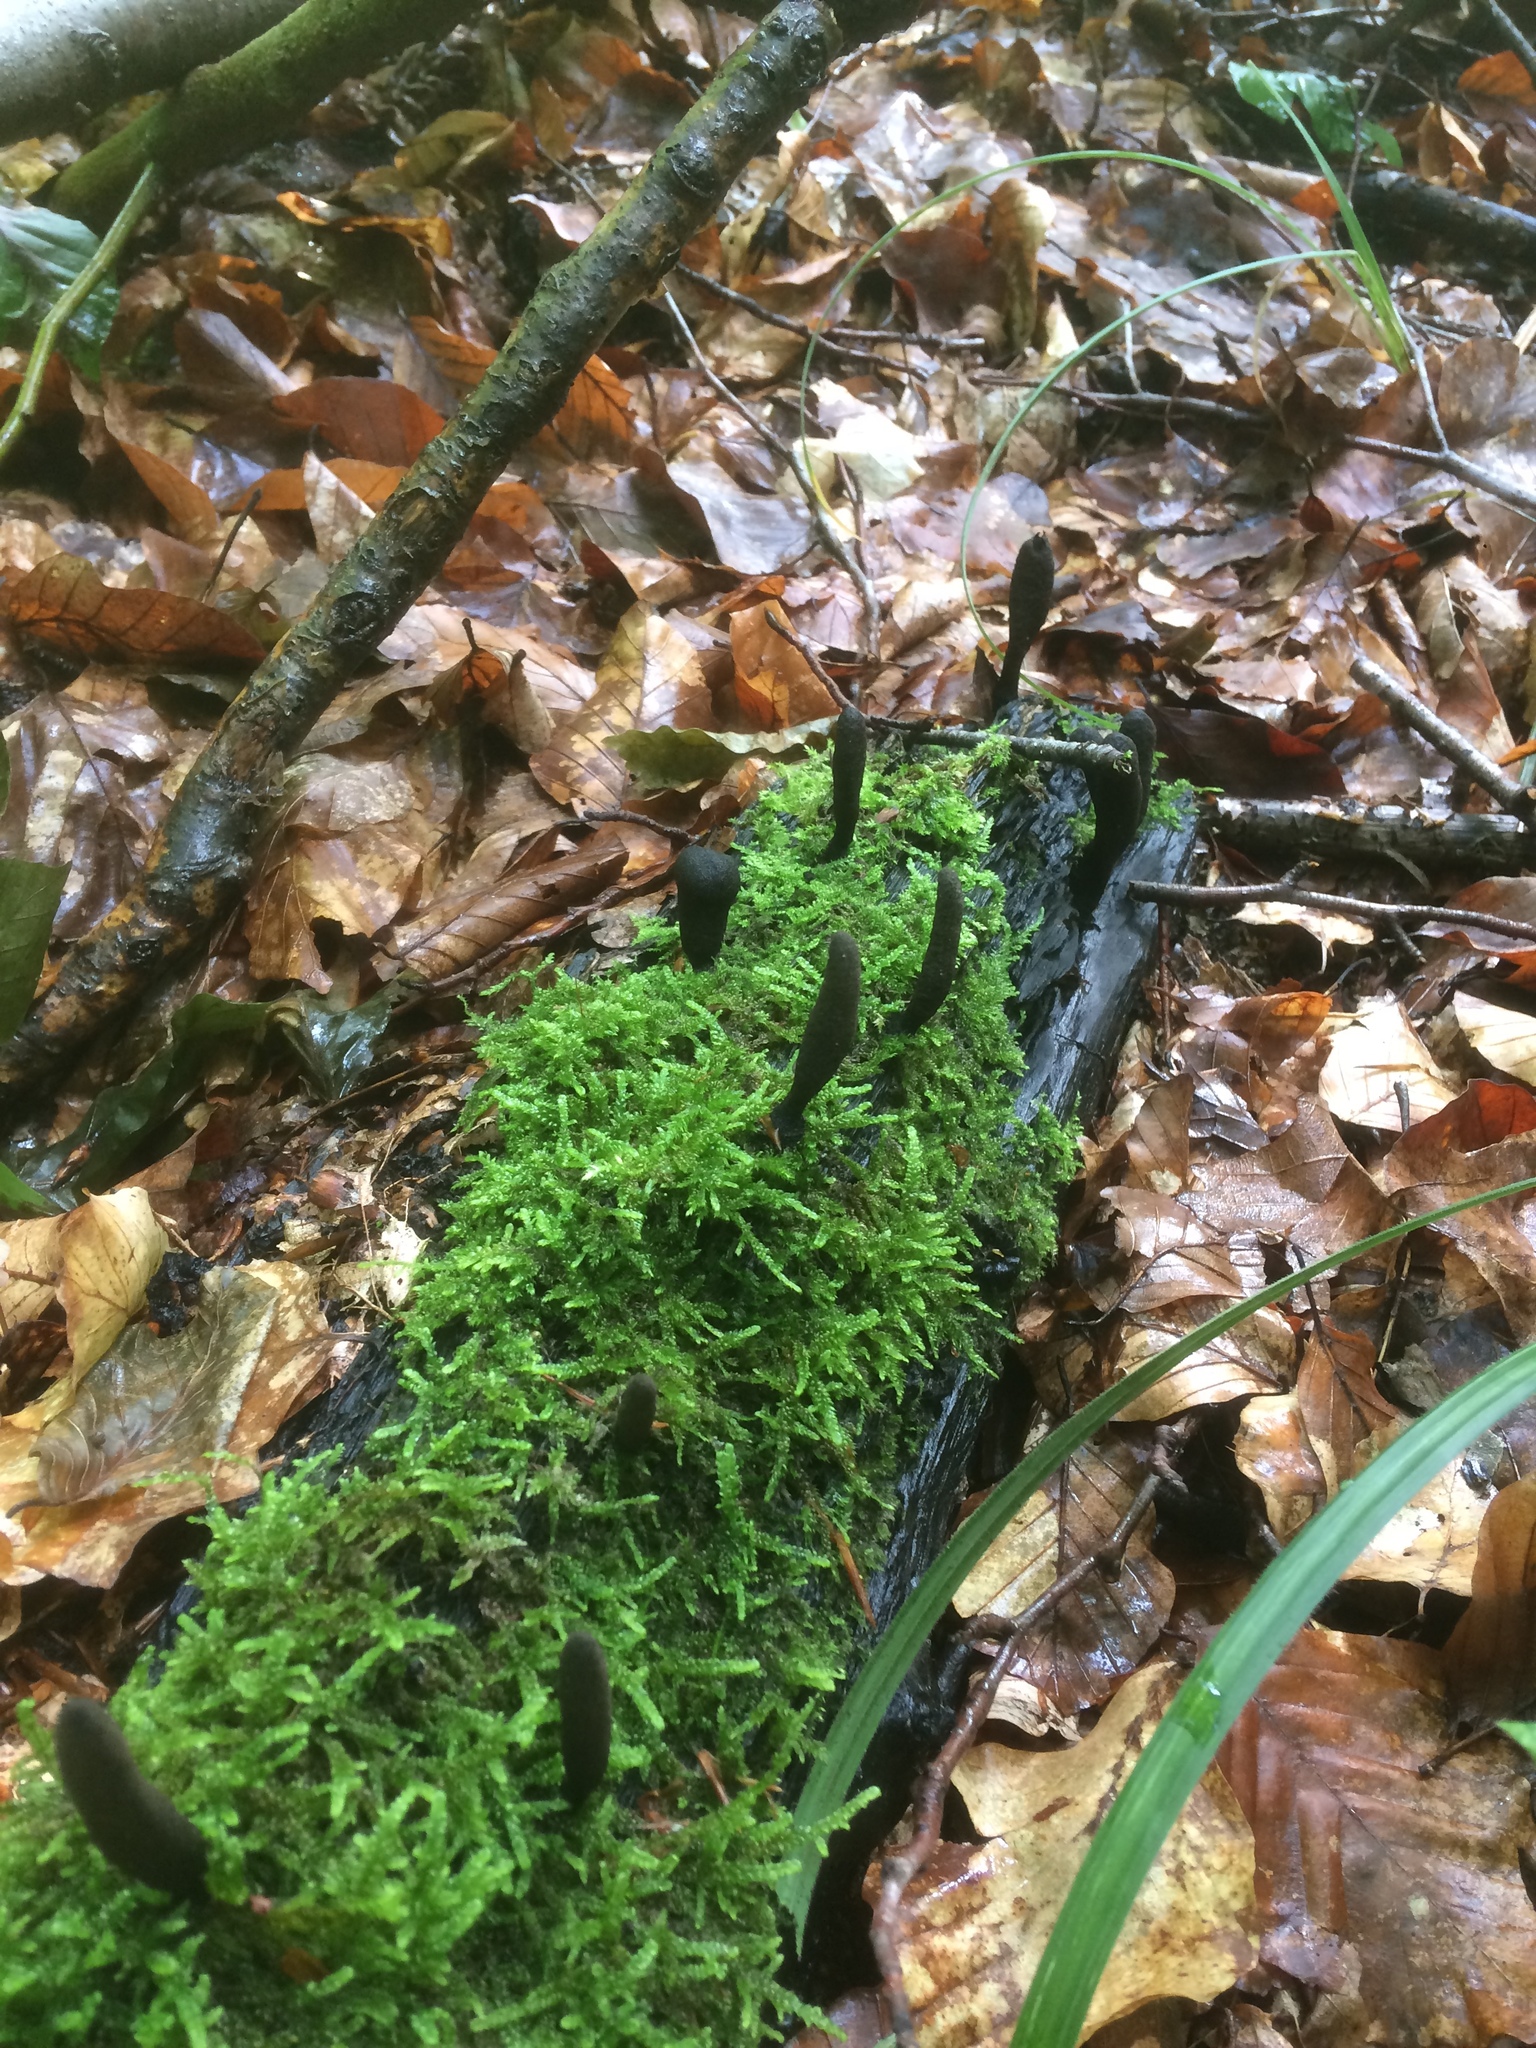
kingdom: Fungi
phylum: Ascomycota
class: Sordariomycetes
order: Xylariales
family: Xylariaceae
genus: Xylaria
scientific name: Xylaria longipes
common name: Dead moll's fingers
